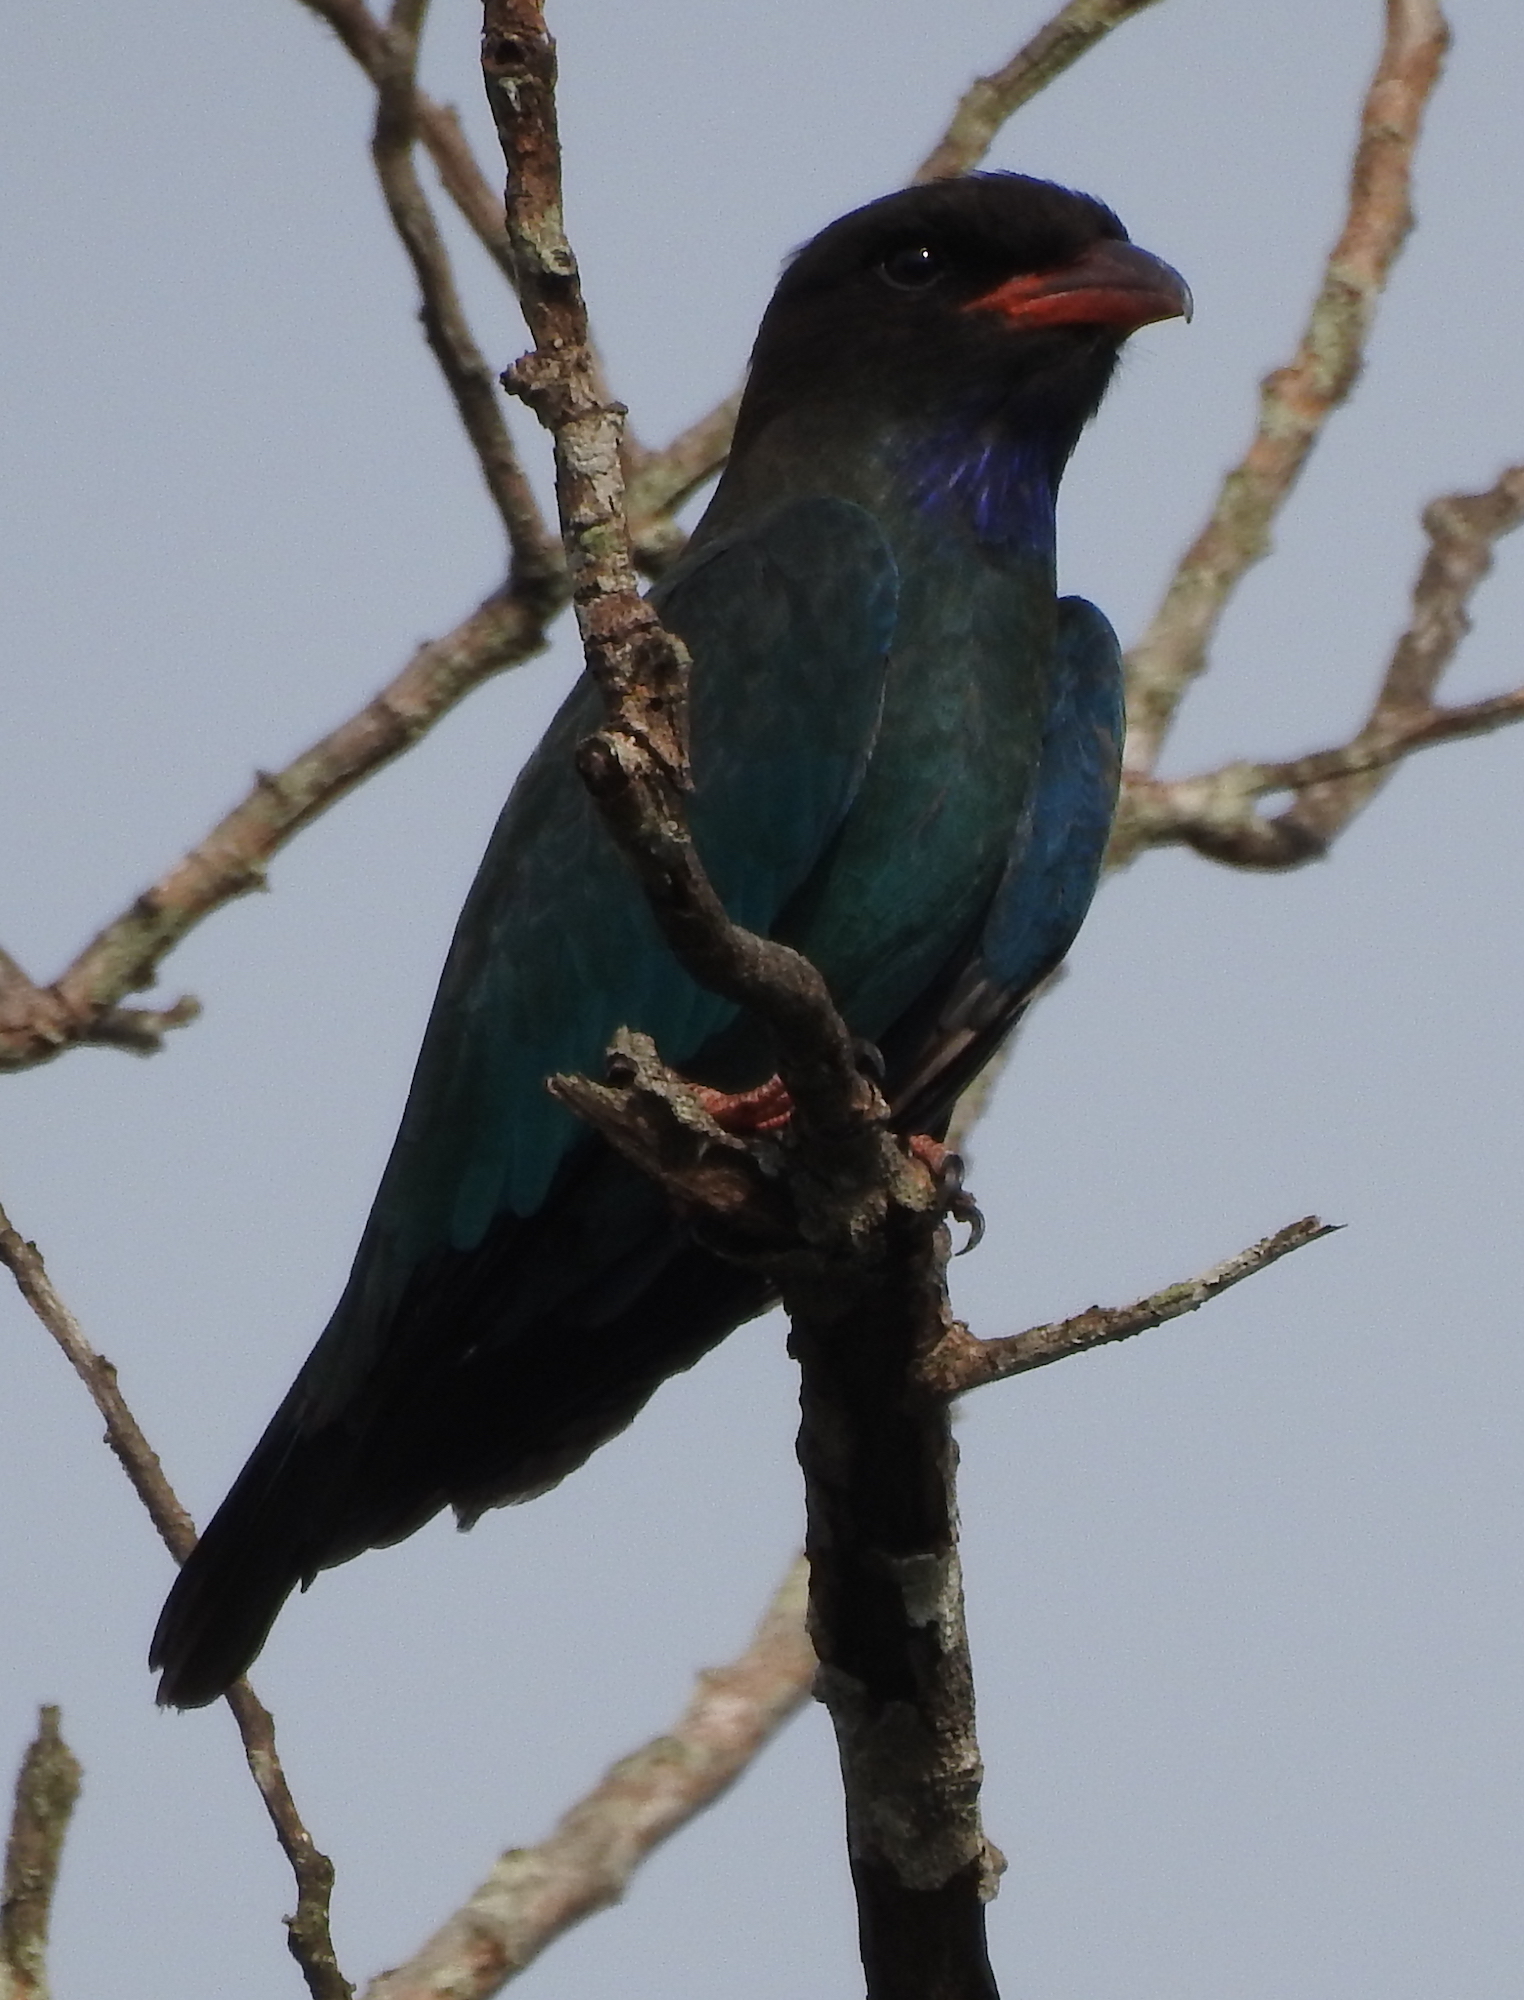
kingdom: Animalia
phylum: Chordata
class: Aves
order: Coraciiformes
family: Coraciidae
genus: Eurystomus
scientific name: Eurystomus orientalis
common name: Oriental dollarbird
